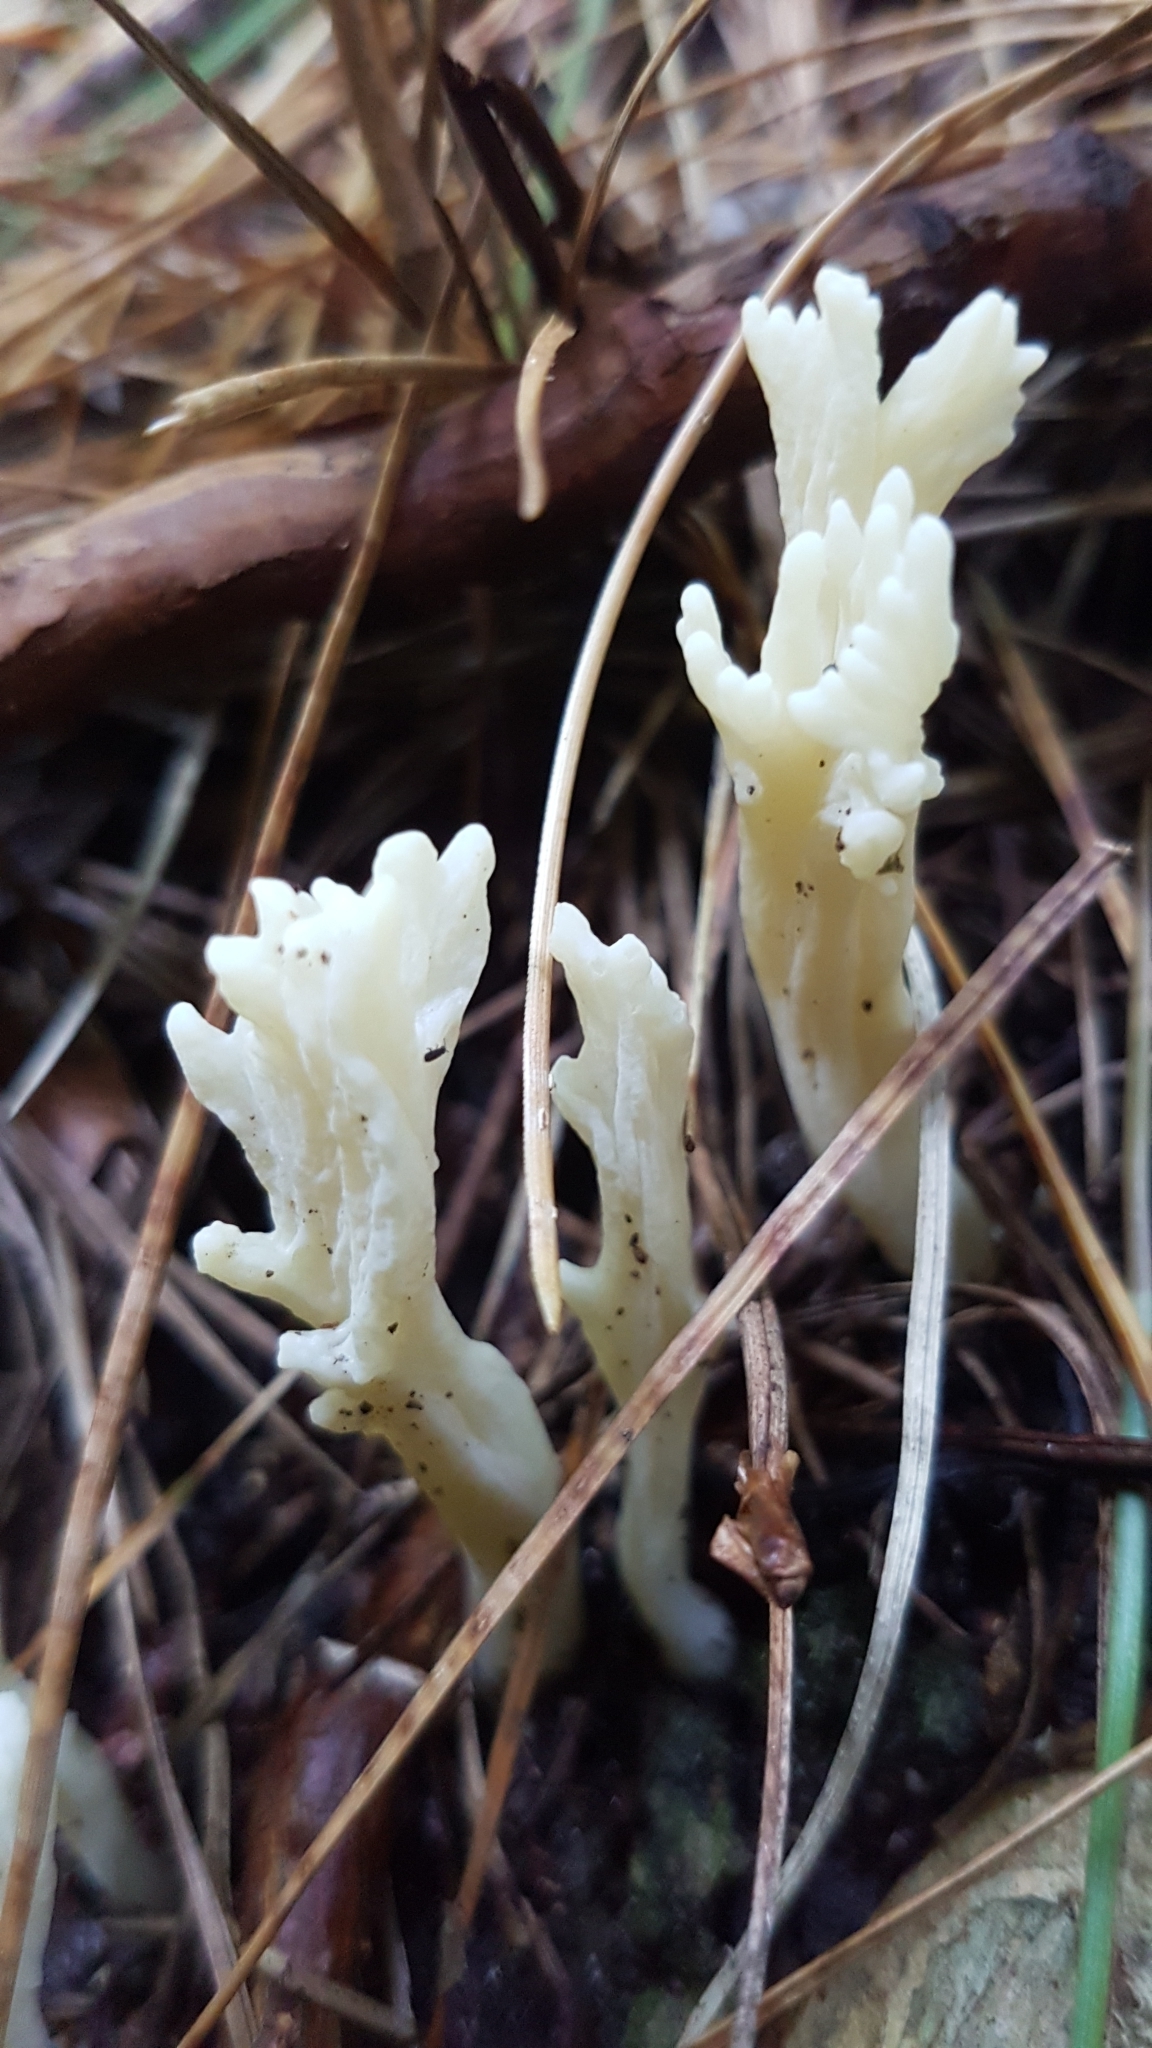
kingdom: Fungi
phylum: Basidiomycota
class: Agaricomycetes
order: Cantharellales
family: Hydnaceae
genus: Clavulina
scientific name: Clavulina rugosa
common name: Wrinkled club
